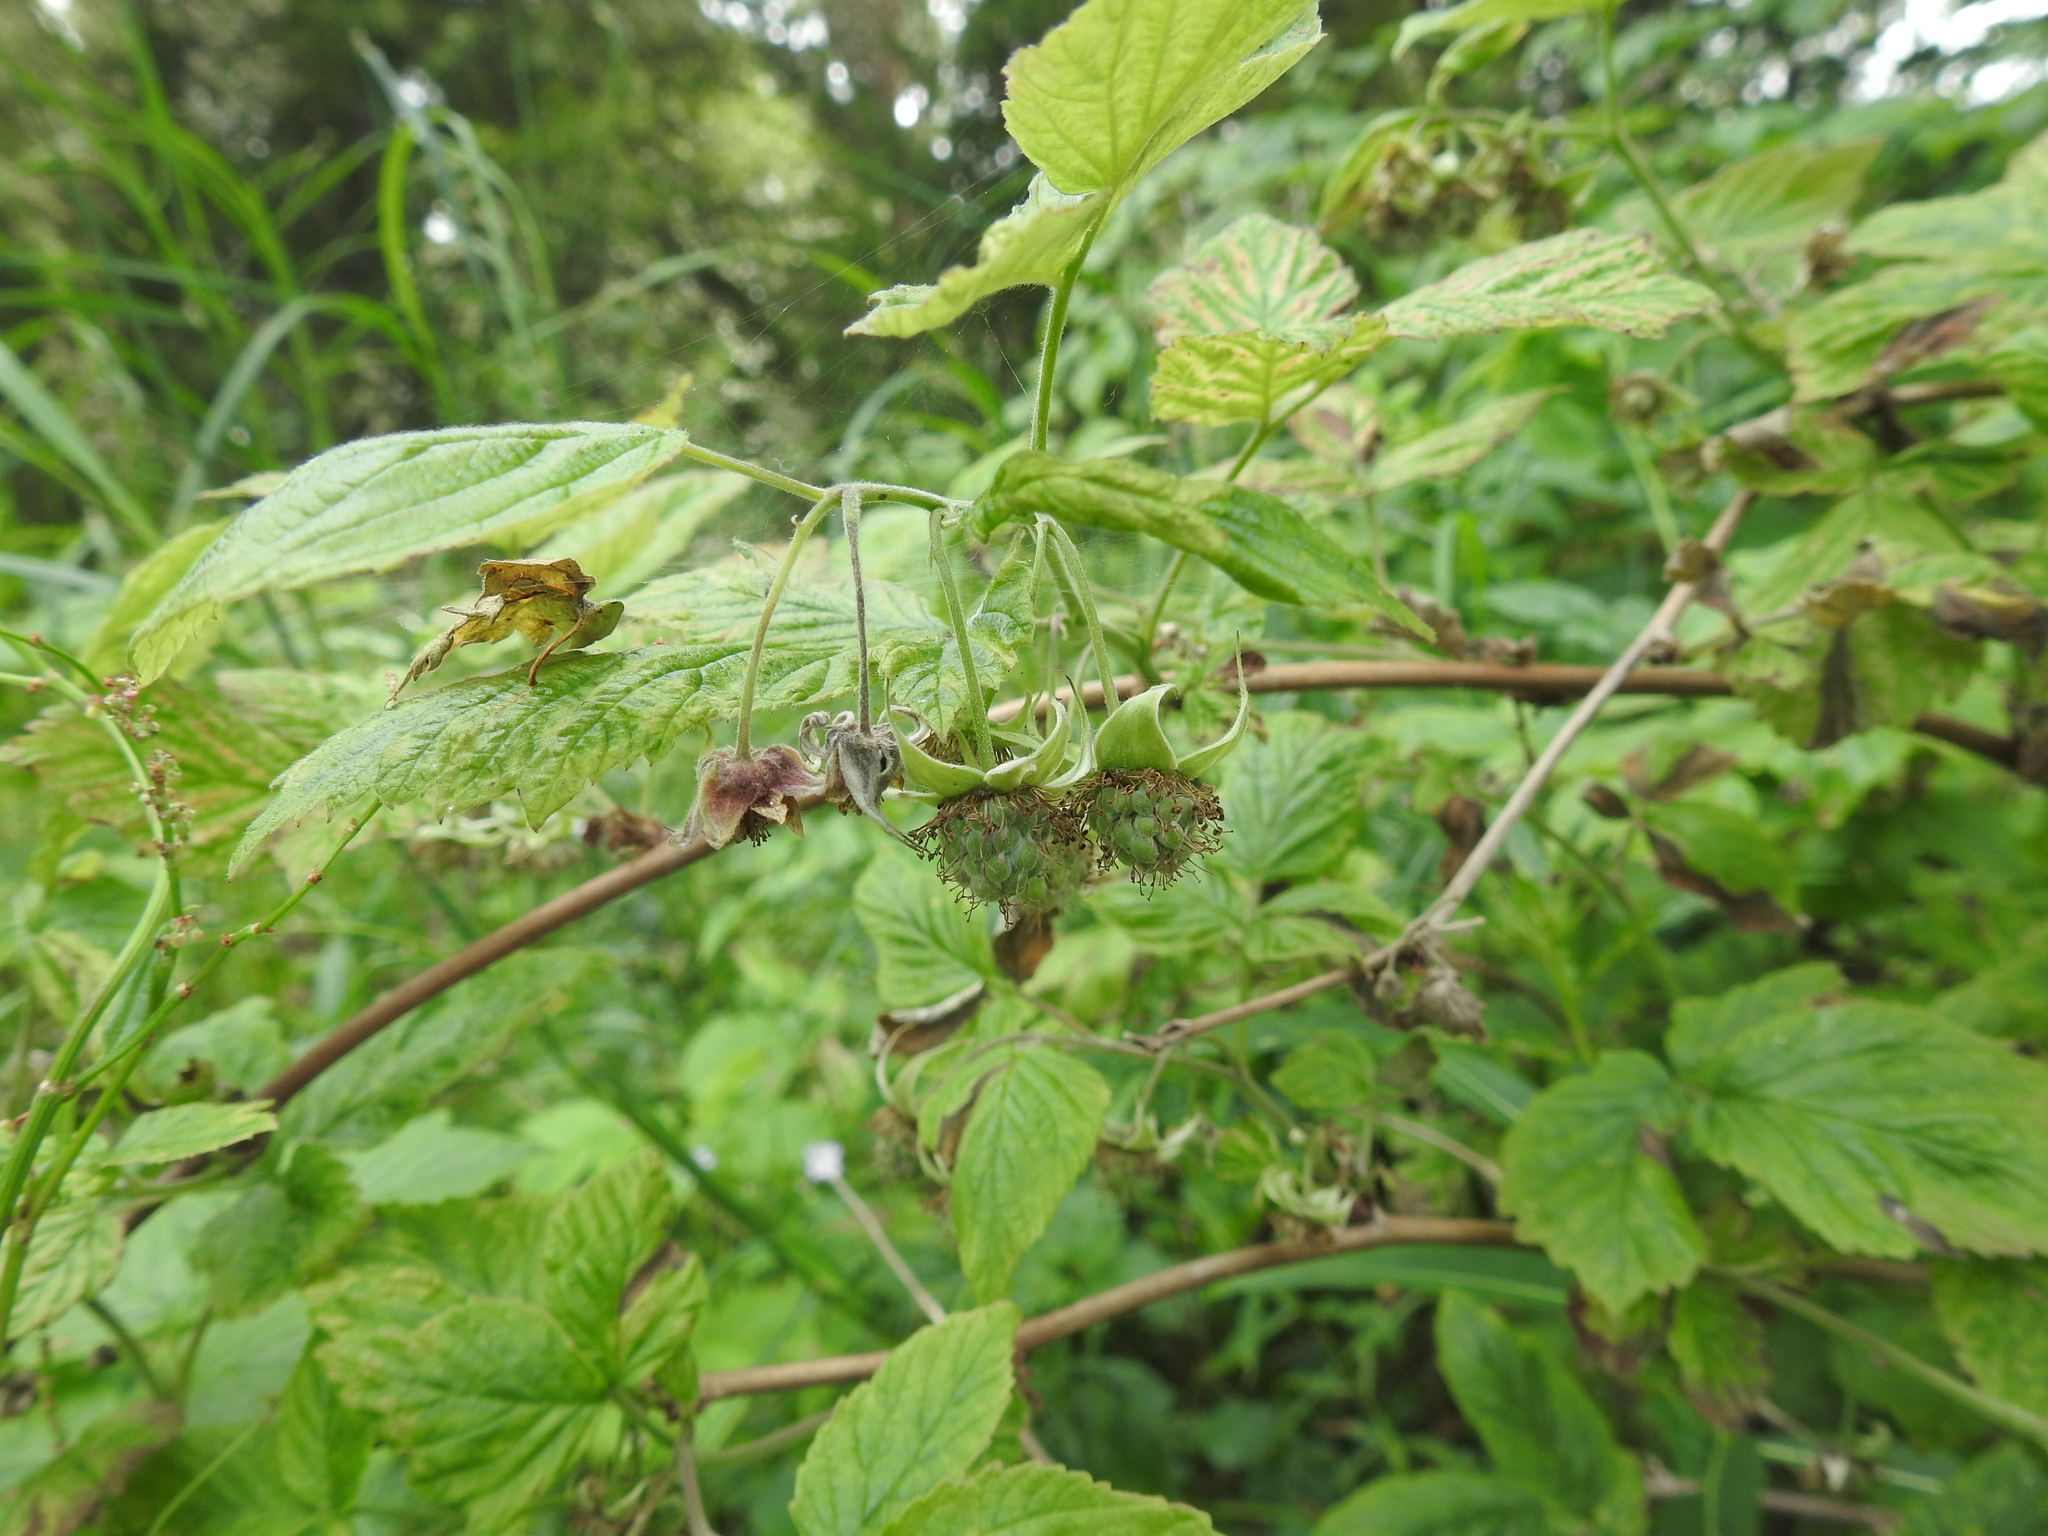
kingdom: Plantae
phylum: Tracheophyta
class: Magnoliopsida
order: Rosales
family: Rosaceae
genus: Rubus
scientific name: Rubus idaeus
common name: Raspberry
